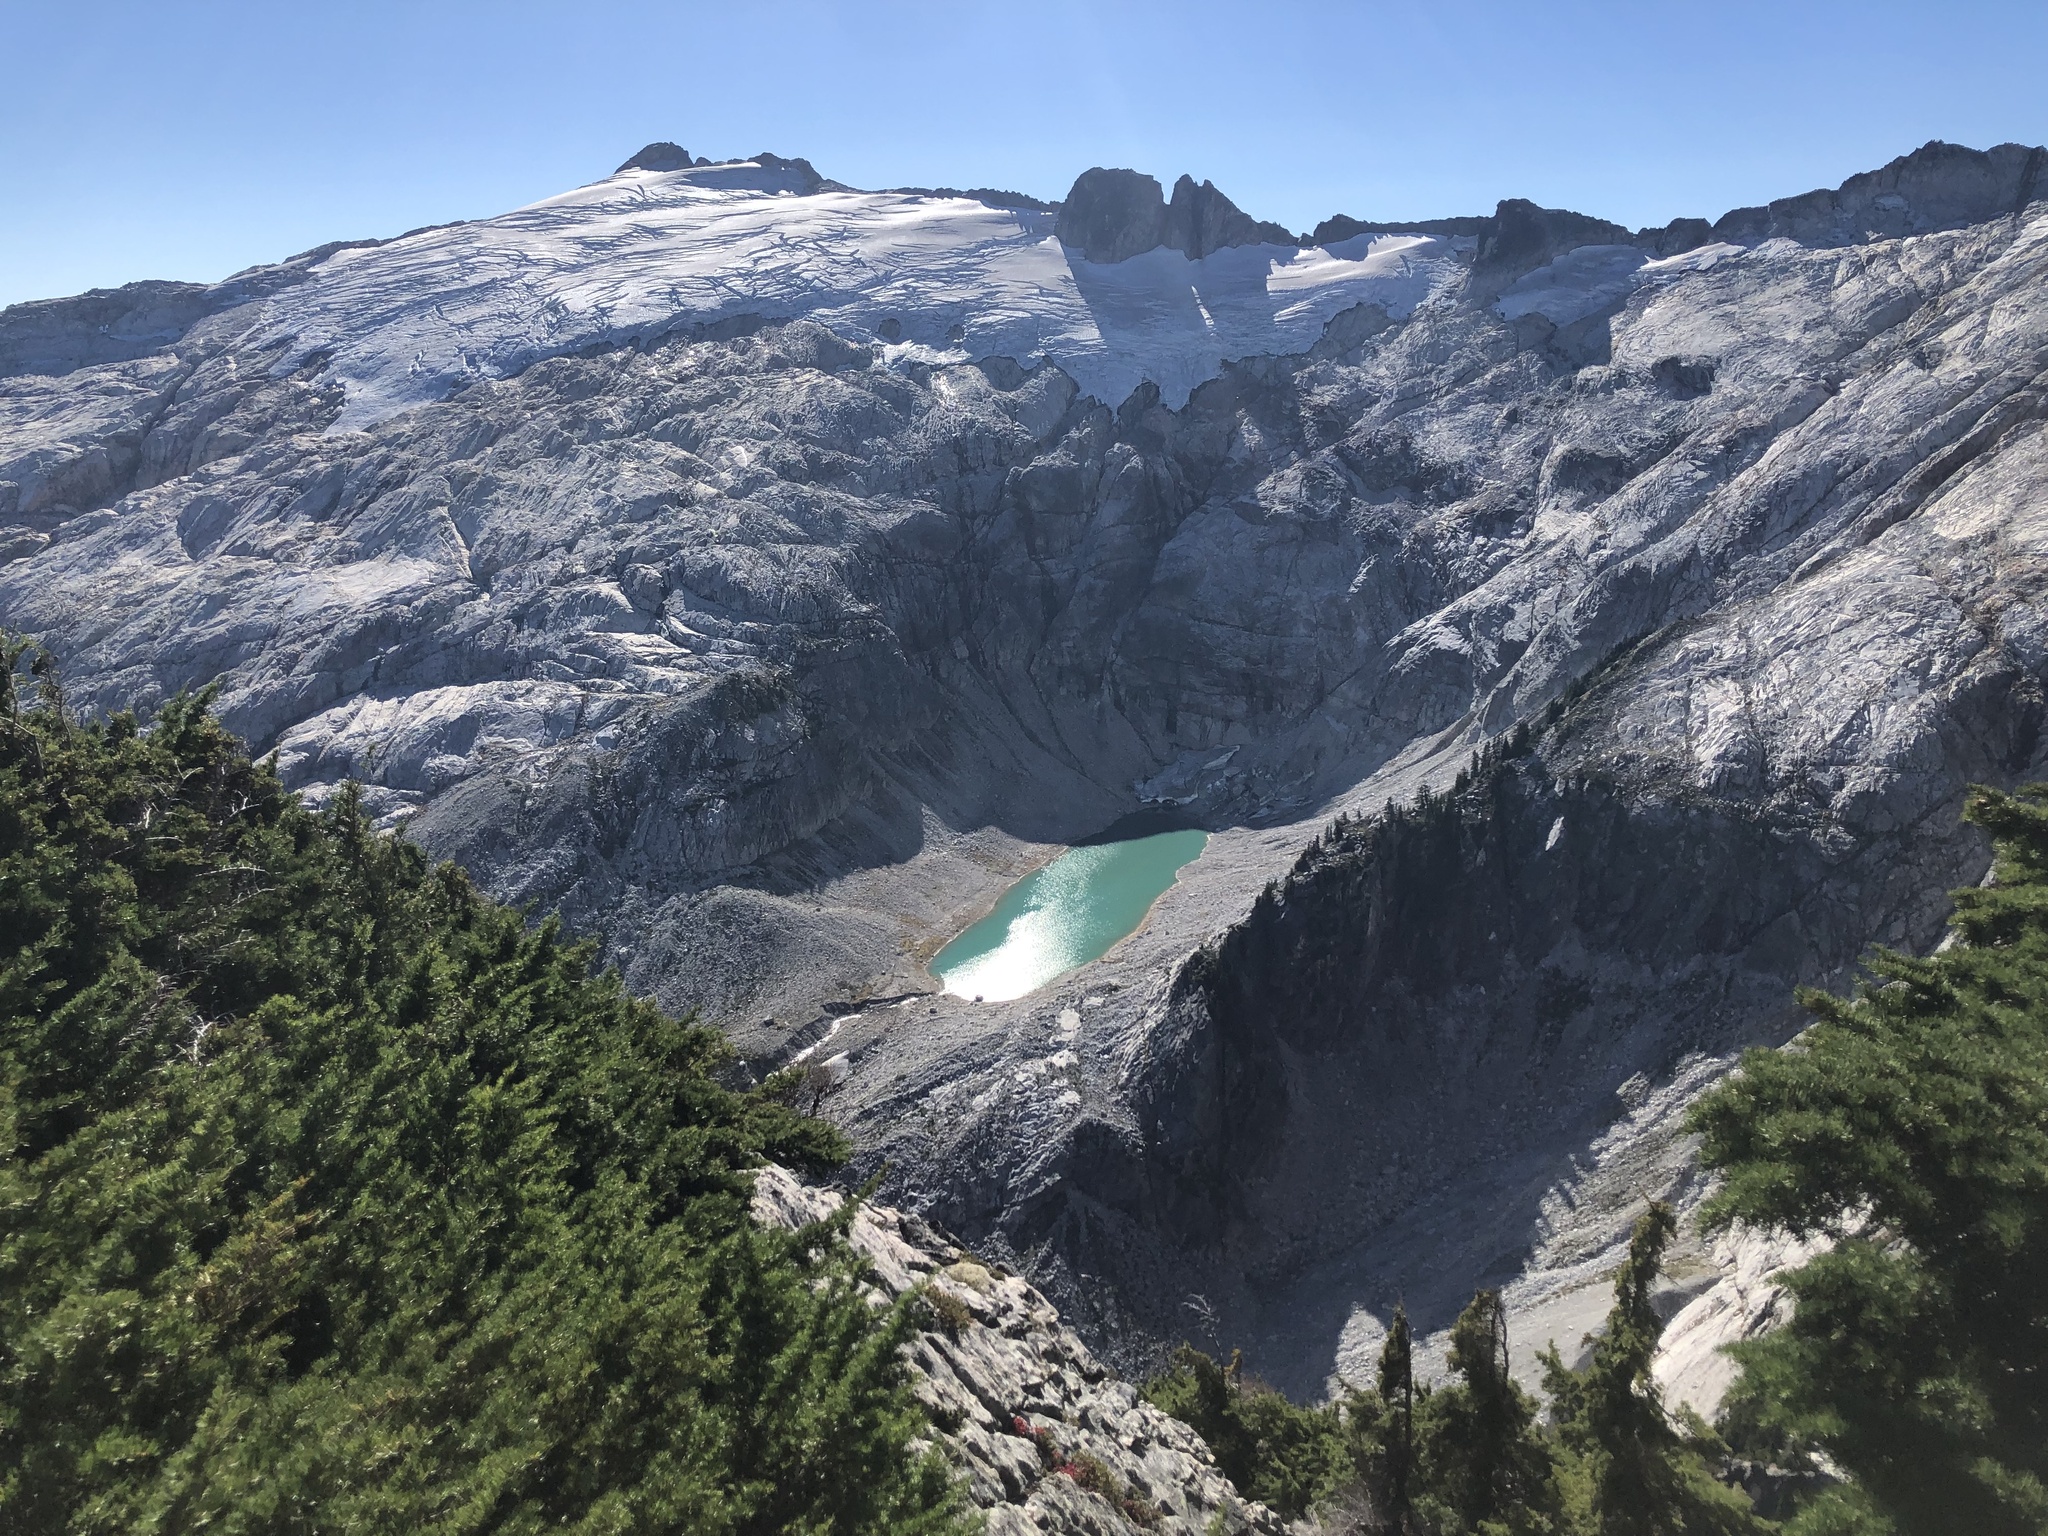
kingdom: Plantae
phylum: Tracheophyta
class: Pinopsida
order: Pinales
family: Pinaceae
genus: Tsuga
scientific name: Tsuga mertensiana
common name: Mountain hemlock
